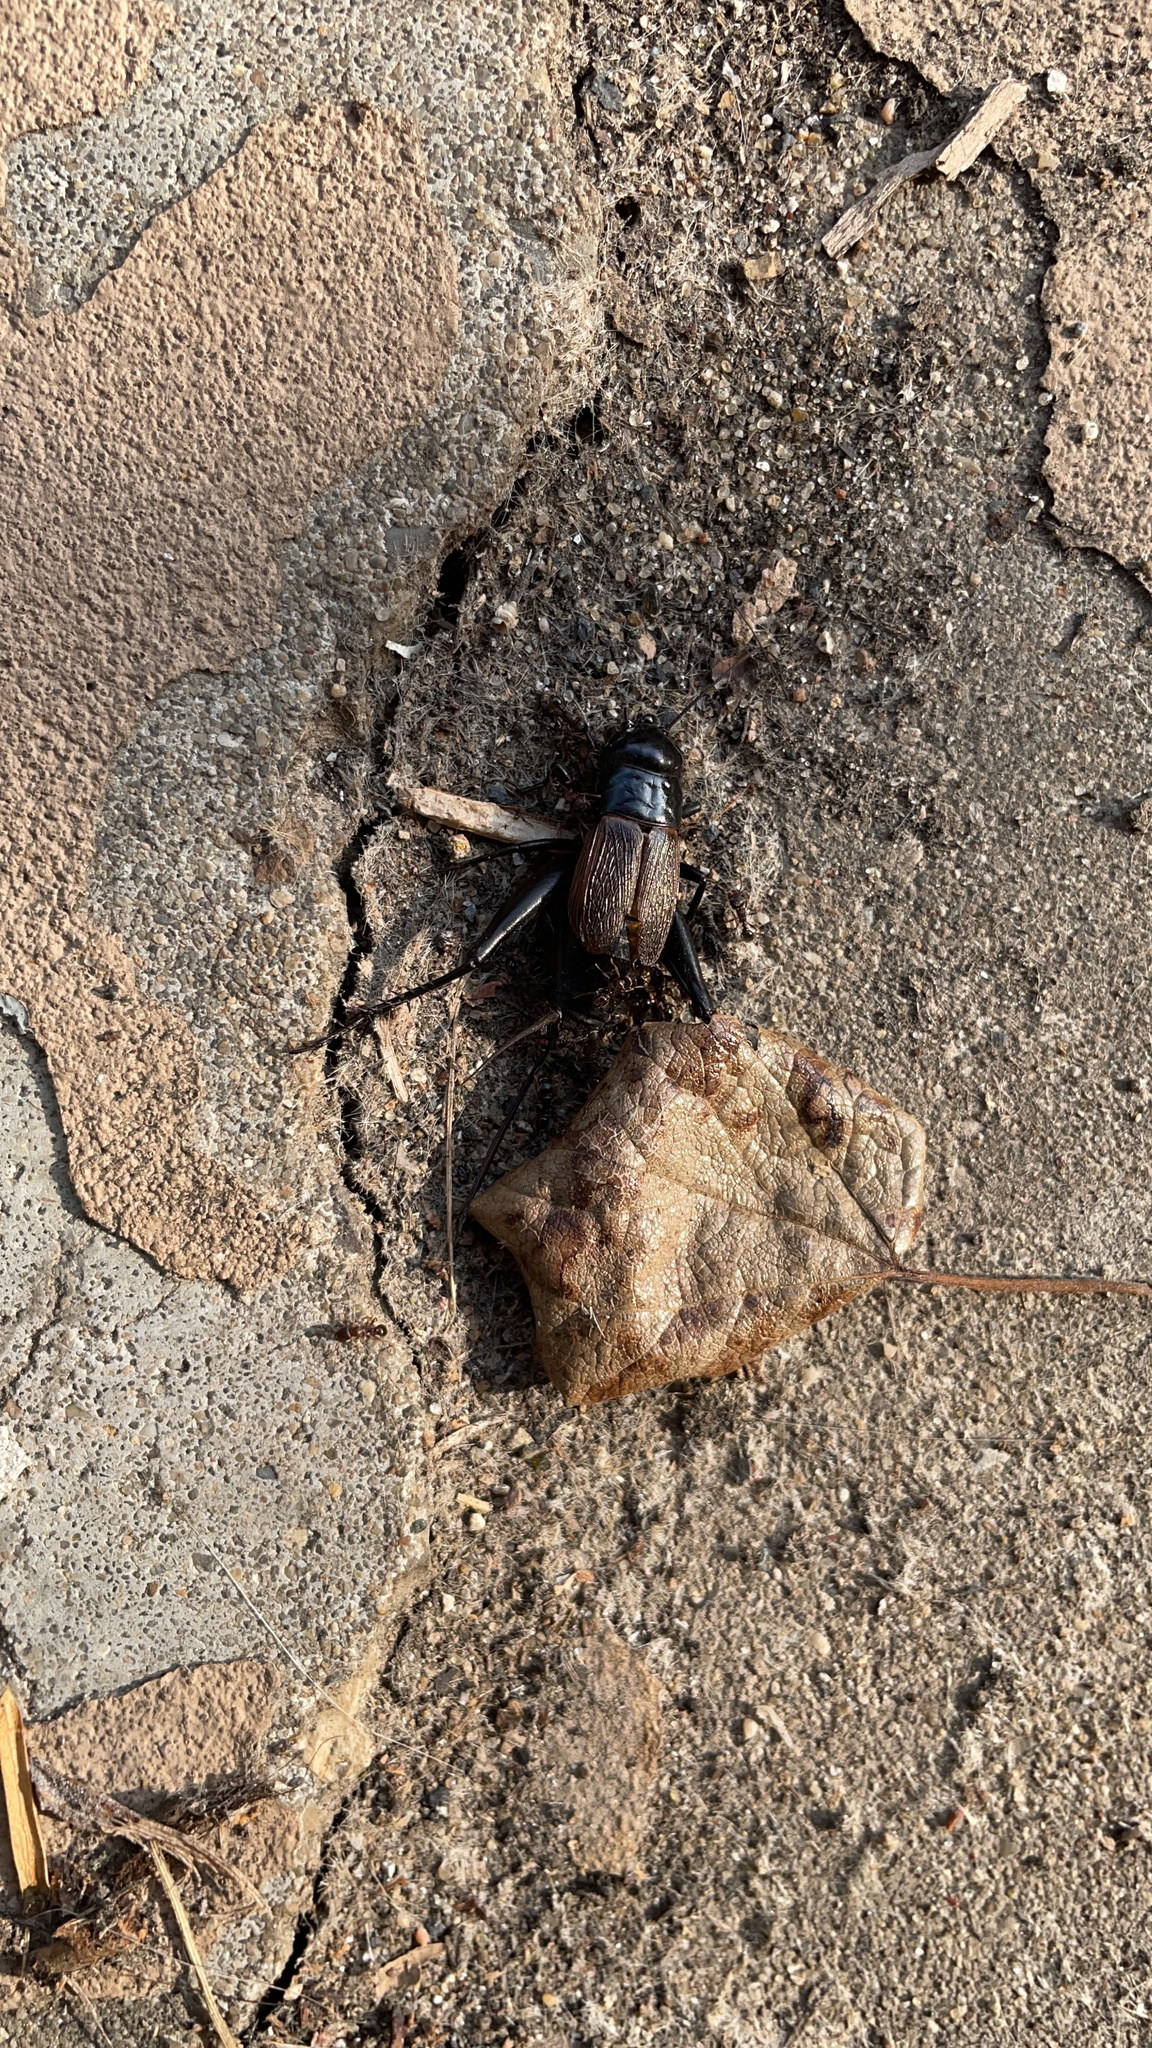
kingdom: Animalia
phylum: Arthropoda
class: Insecta
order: Orthoptera
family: Gryllidae
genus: Gryllus
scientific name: Gryllus pennsylvanicus
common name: Fall field cricket
